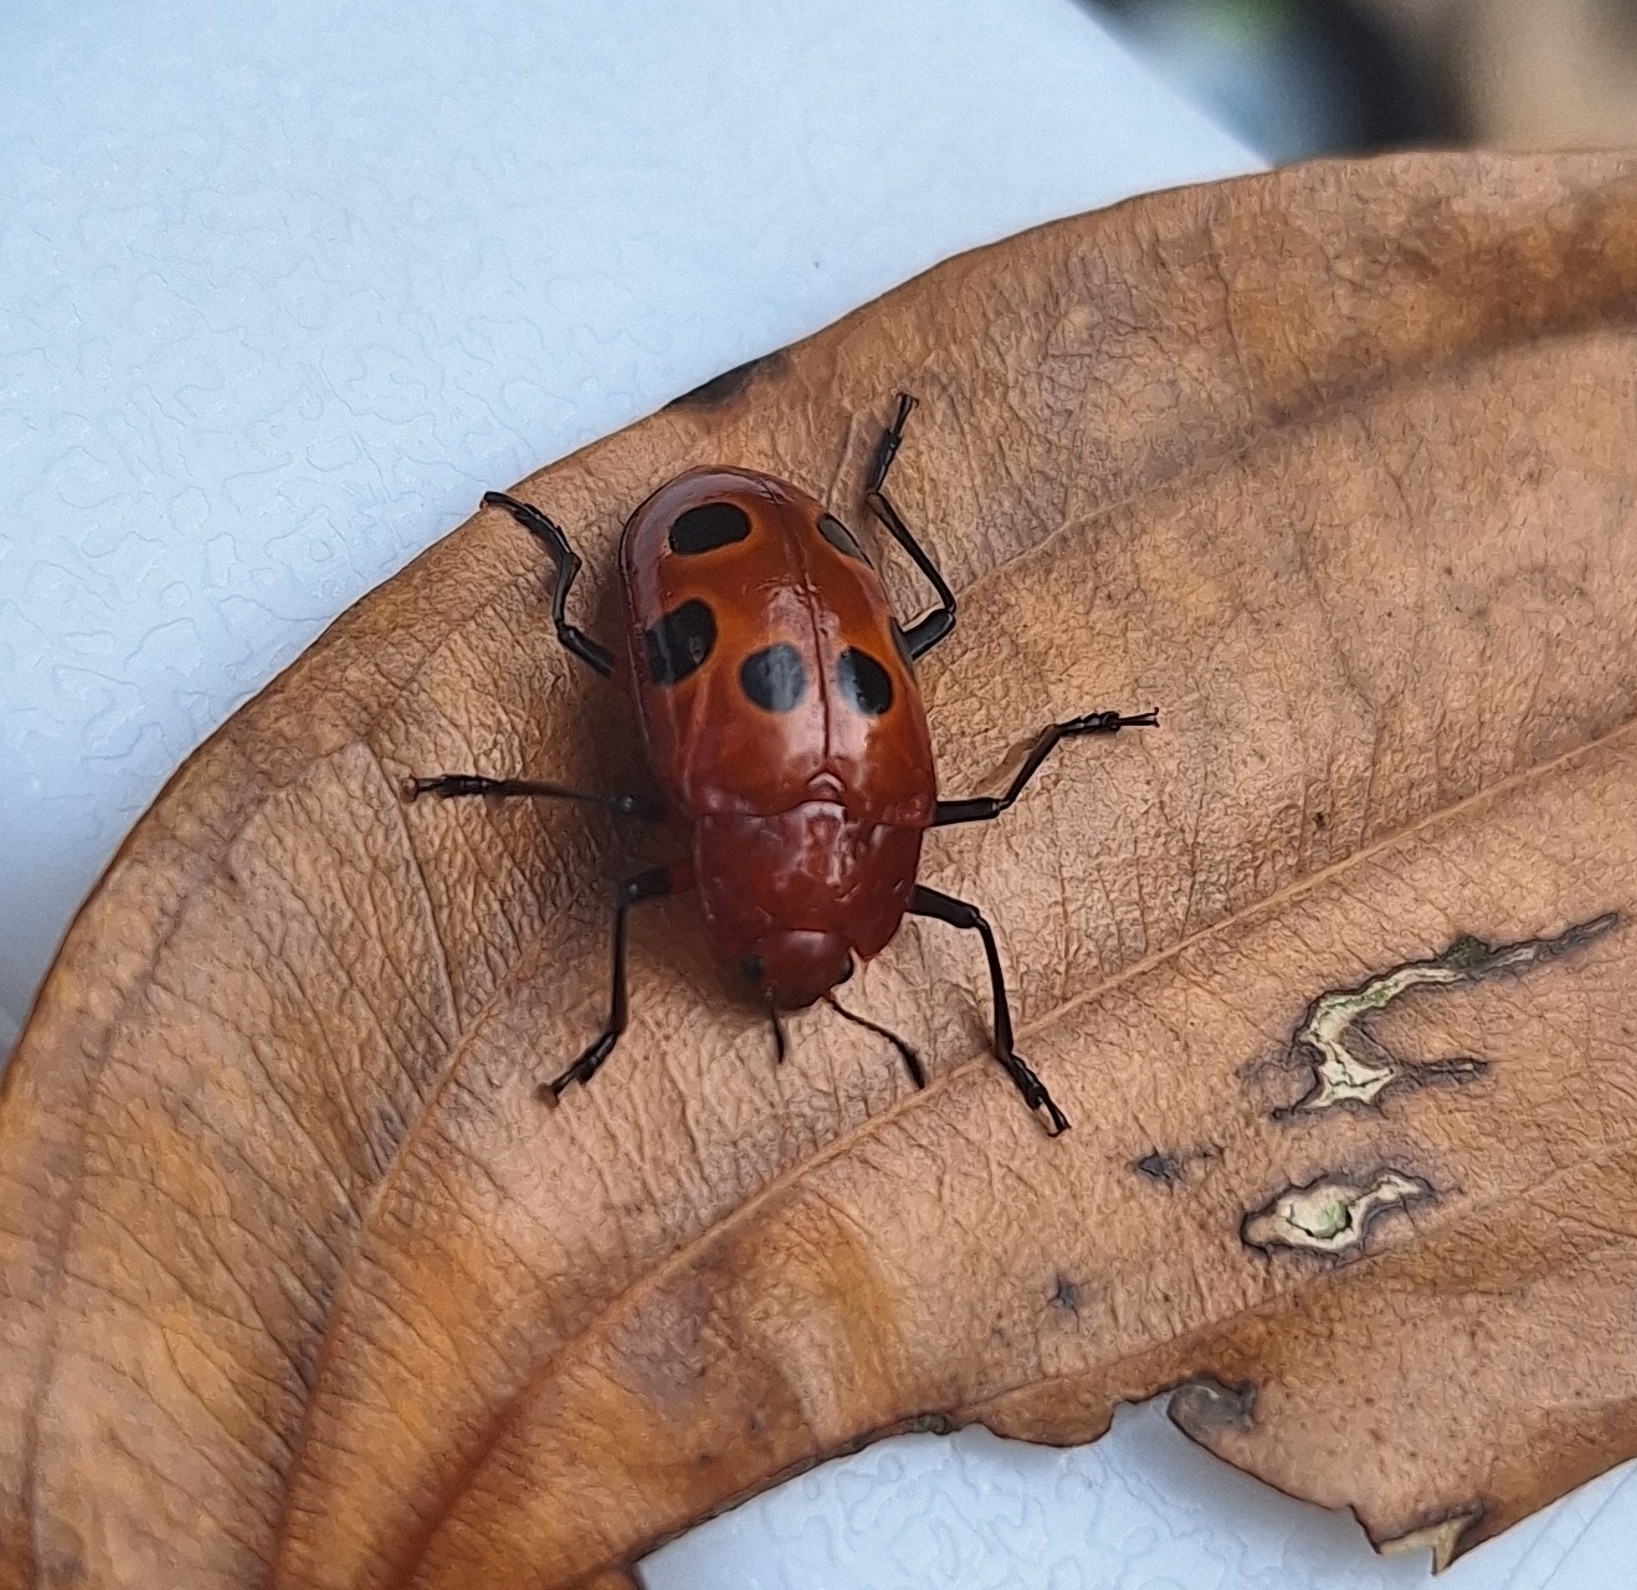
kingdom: Animalia
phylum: Arthropoda
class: Insecta
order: Coleoptera
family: Erotylidae
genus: Iphiclus
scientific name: Iphiclus
